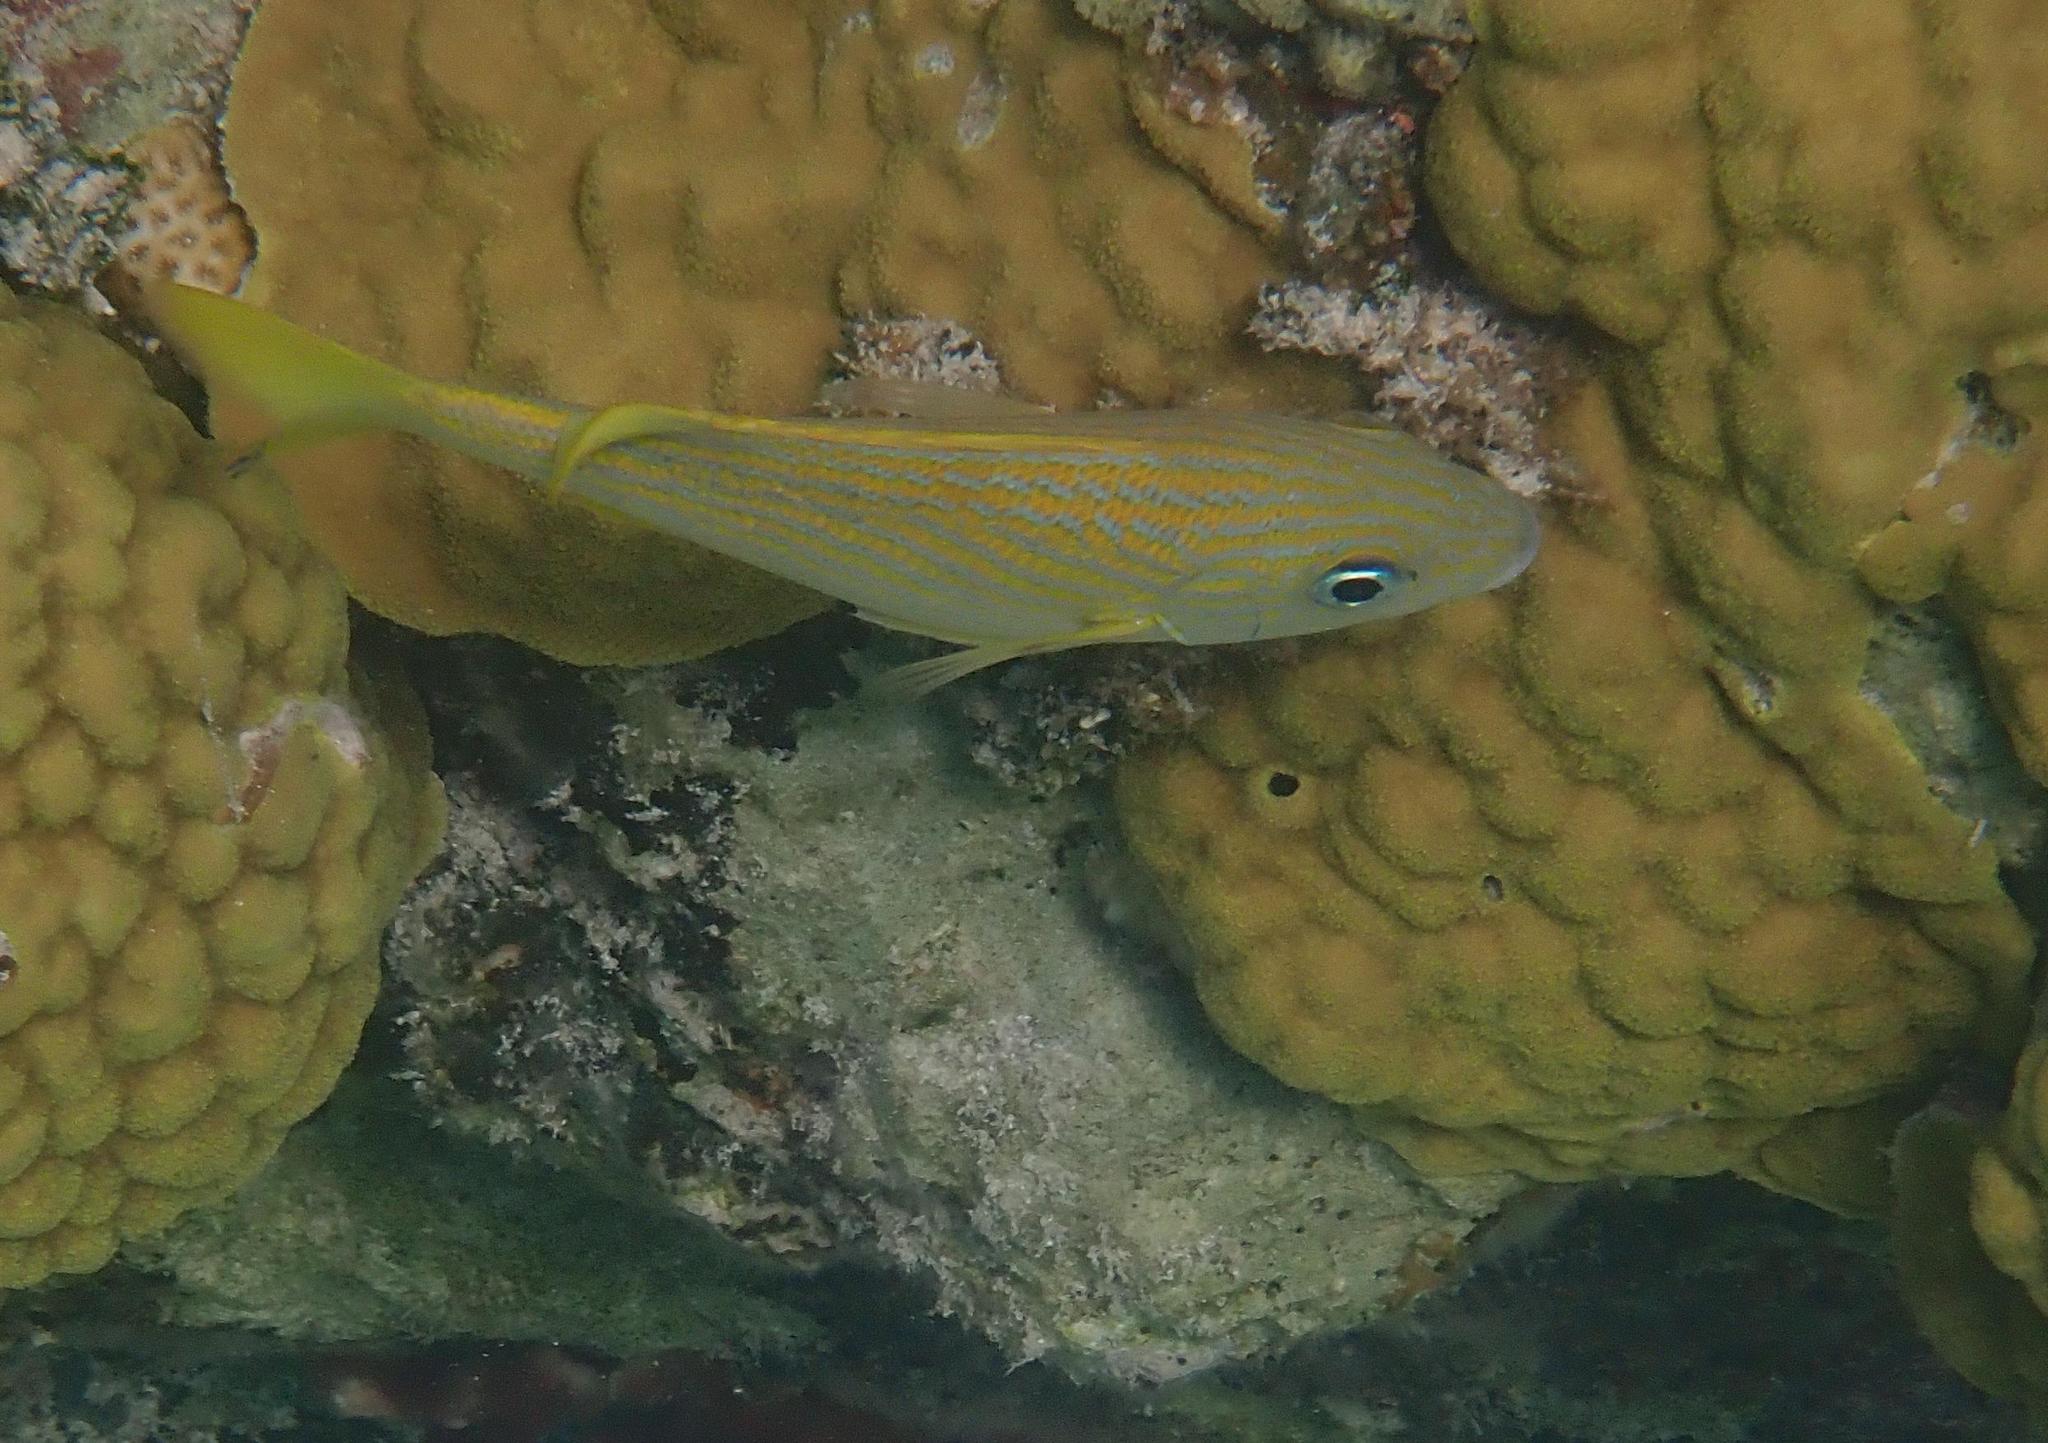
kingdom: Animalia
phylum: Chordata
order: Perciformes
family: Haemulidae
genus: Haemulon
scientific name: Haemulon flavolineatum
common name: French grunt
